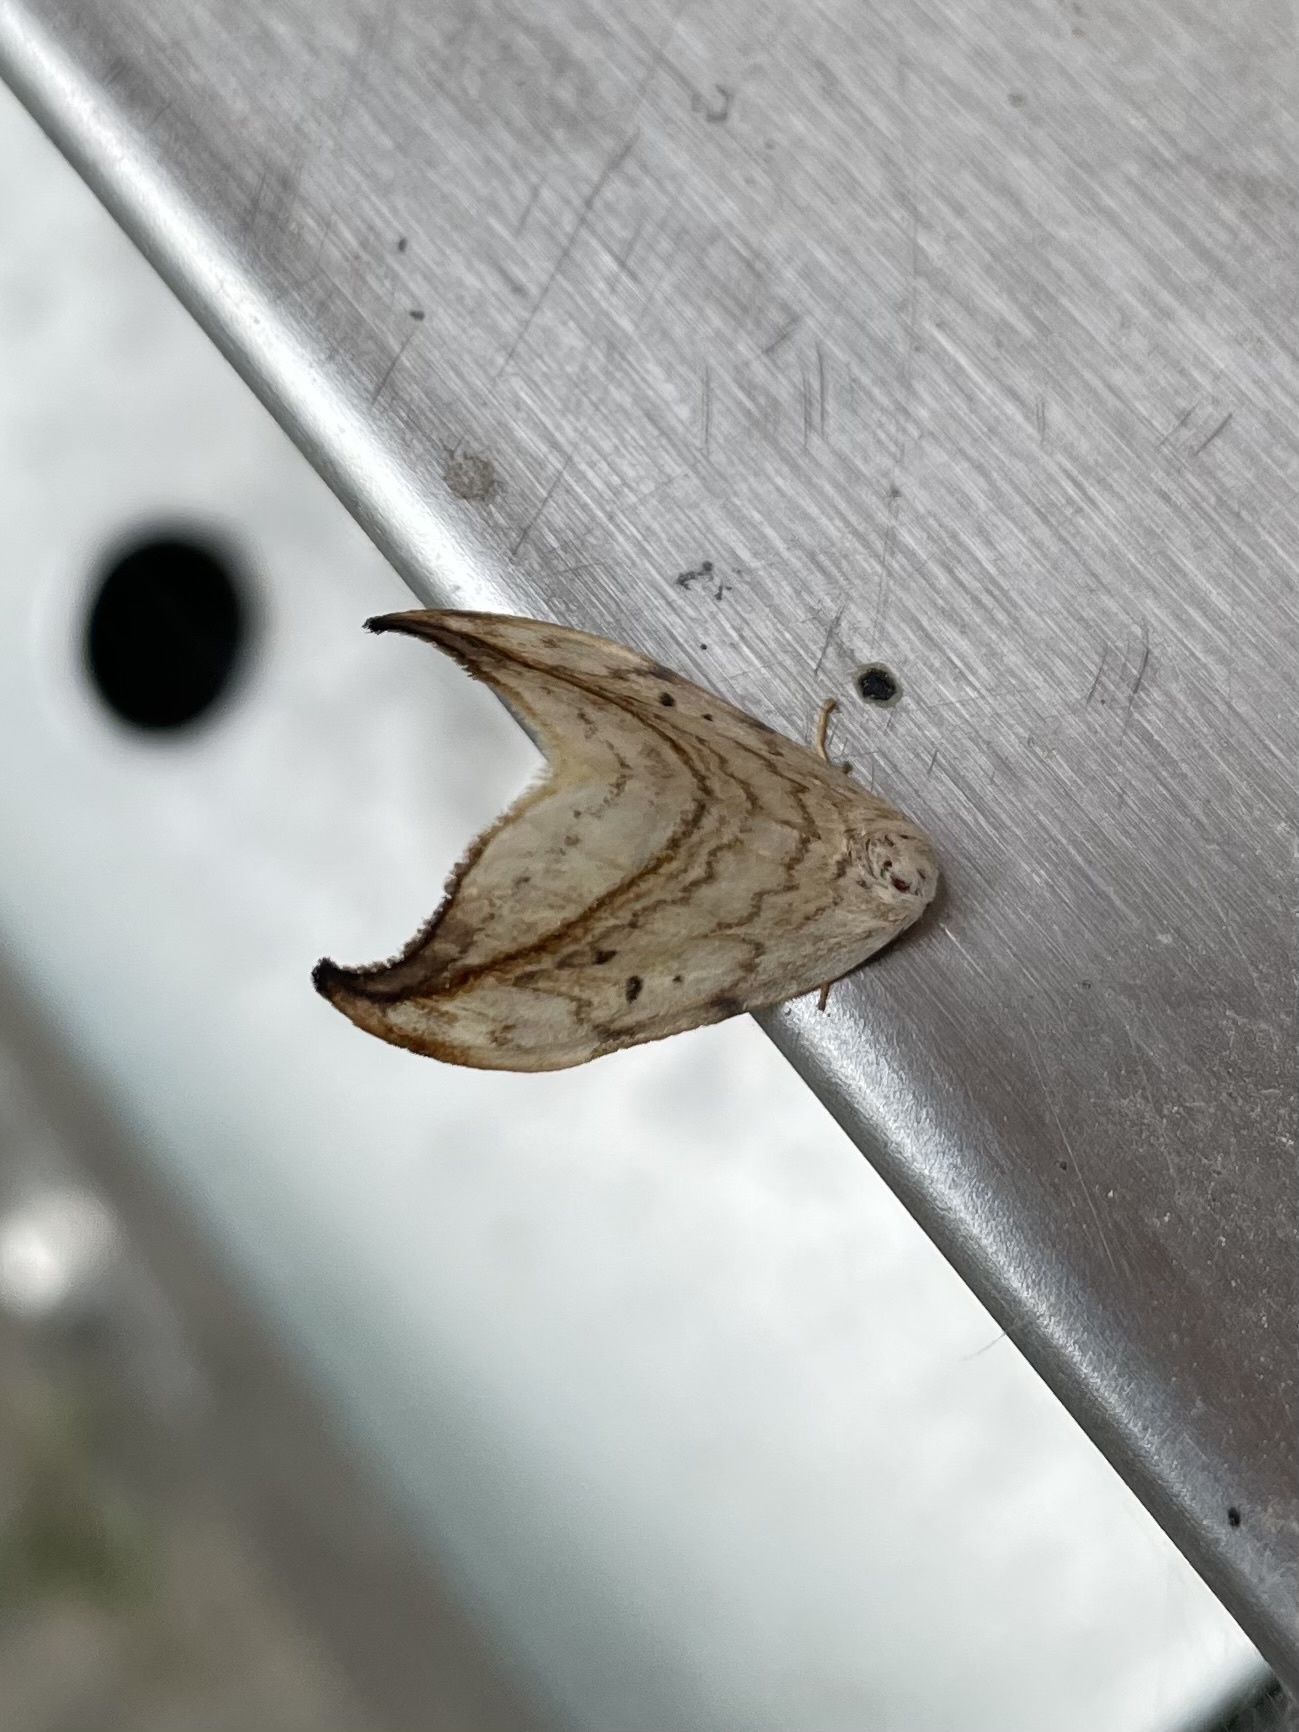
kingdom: Animalia
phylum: Arthropoda
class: Insecta
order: Lepidoptera
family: Drepanidae
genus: Drepana
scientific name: Drepana arcuata
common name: Arched hooktip moth
